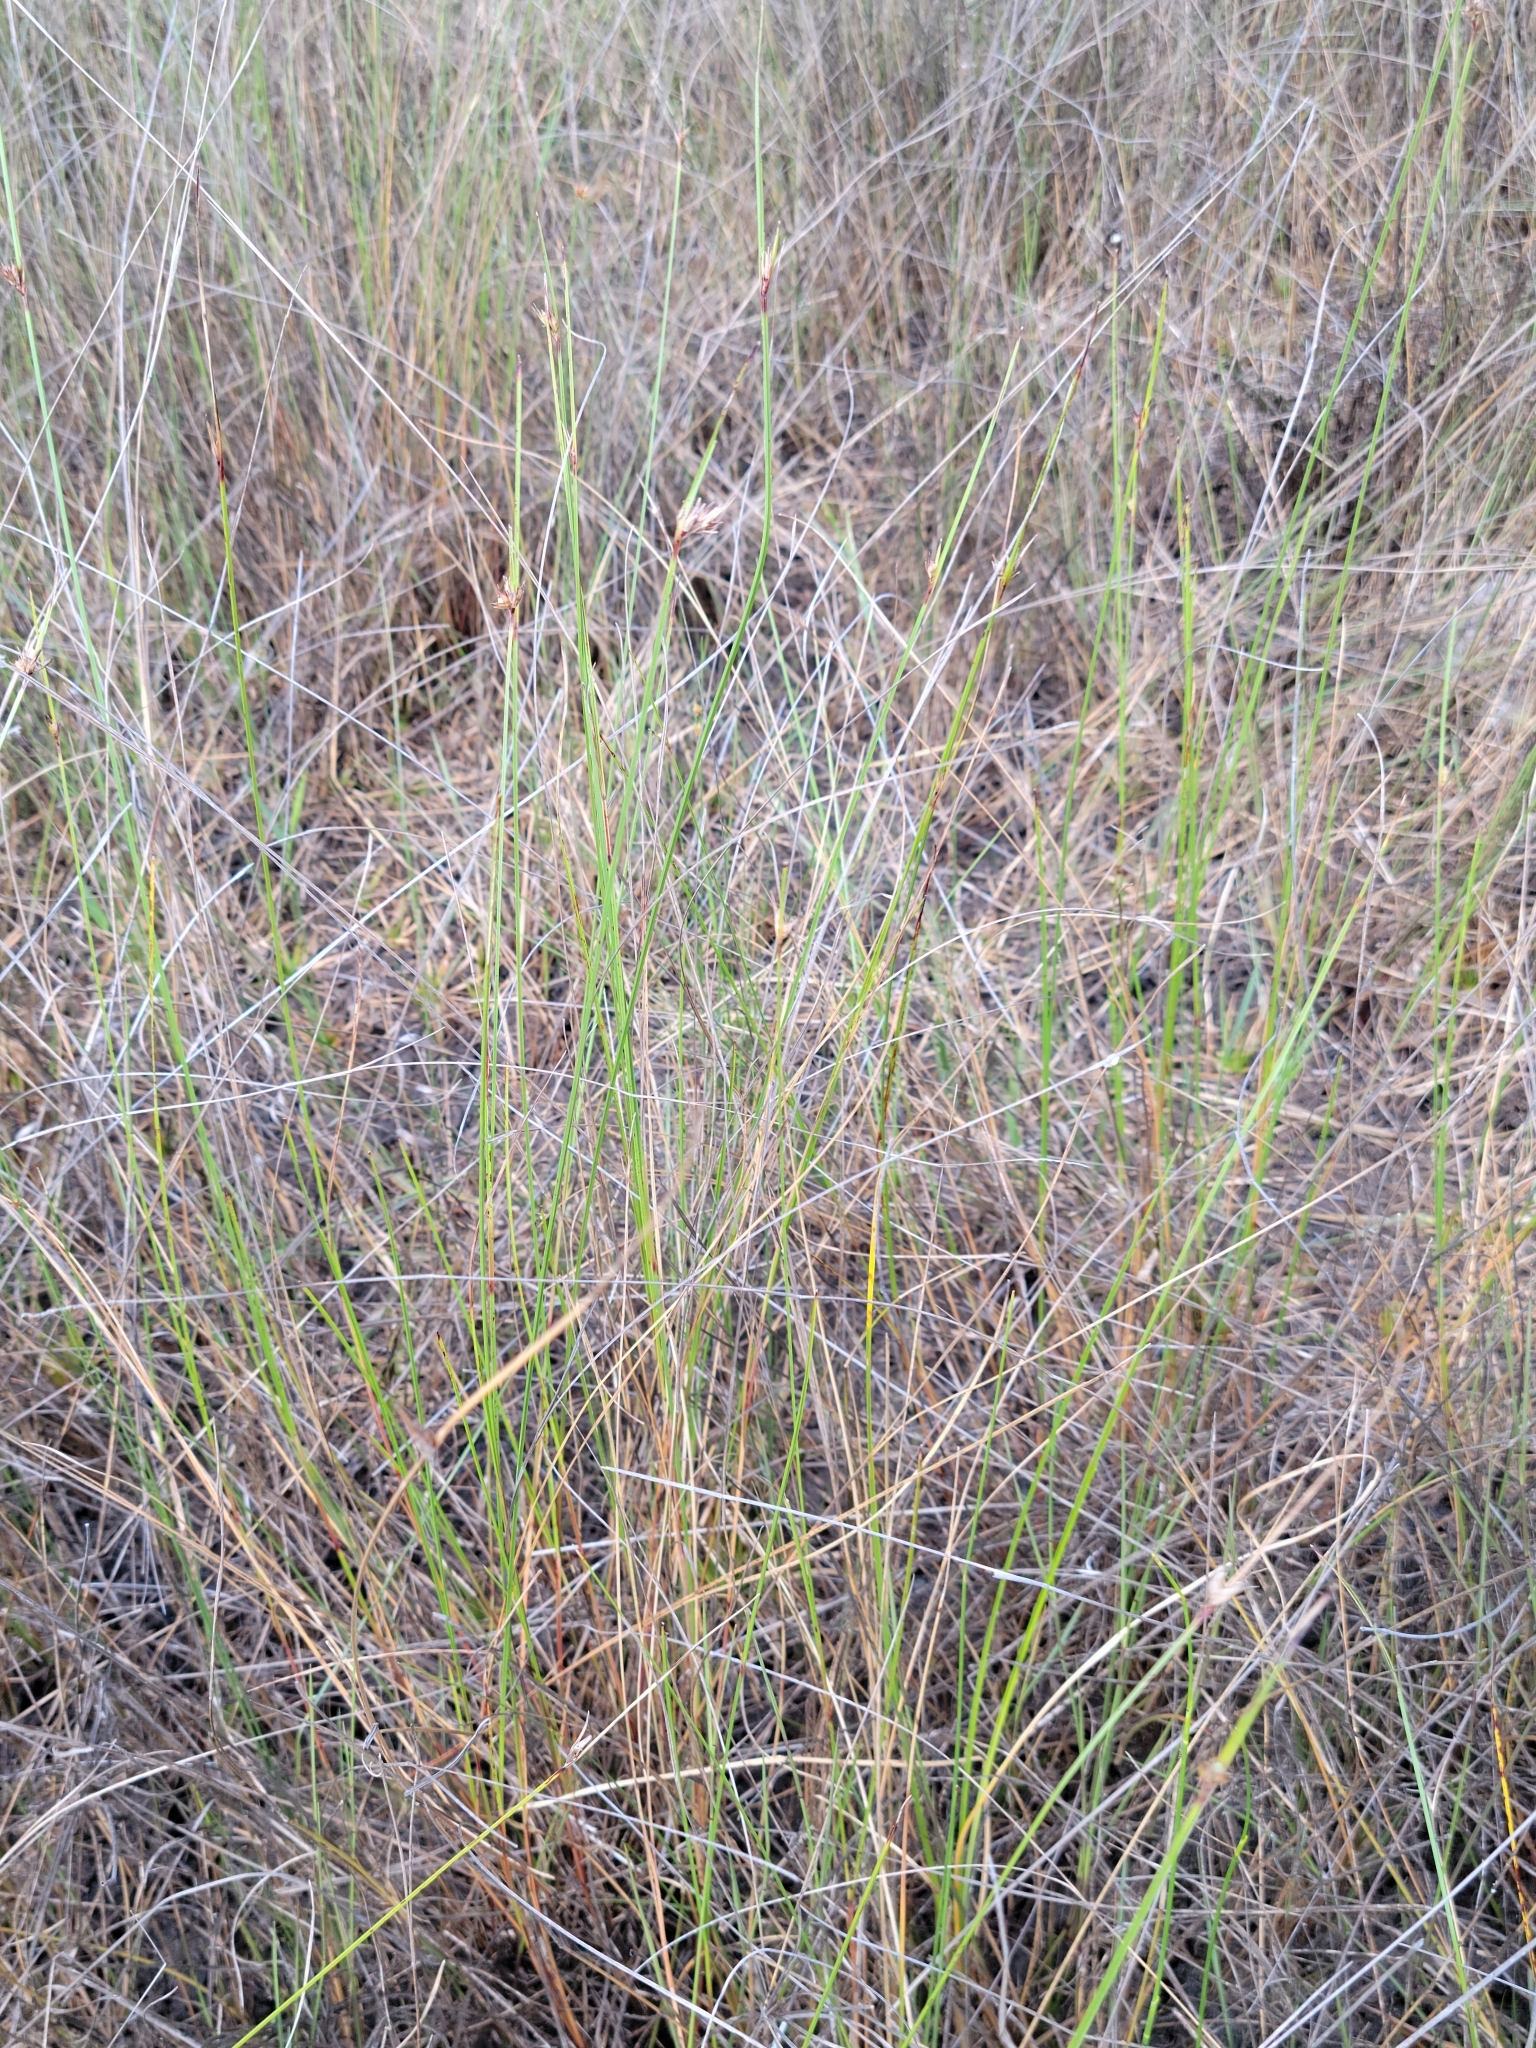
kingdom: Plantae
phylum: Tracheophyta
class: Liliopsida
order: Poales
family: Cyperaceae
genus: Scleria
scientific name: Scleria baldwinii
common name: Baldwin's nutrush
